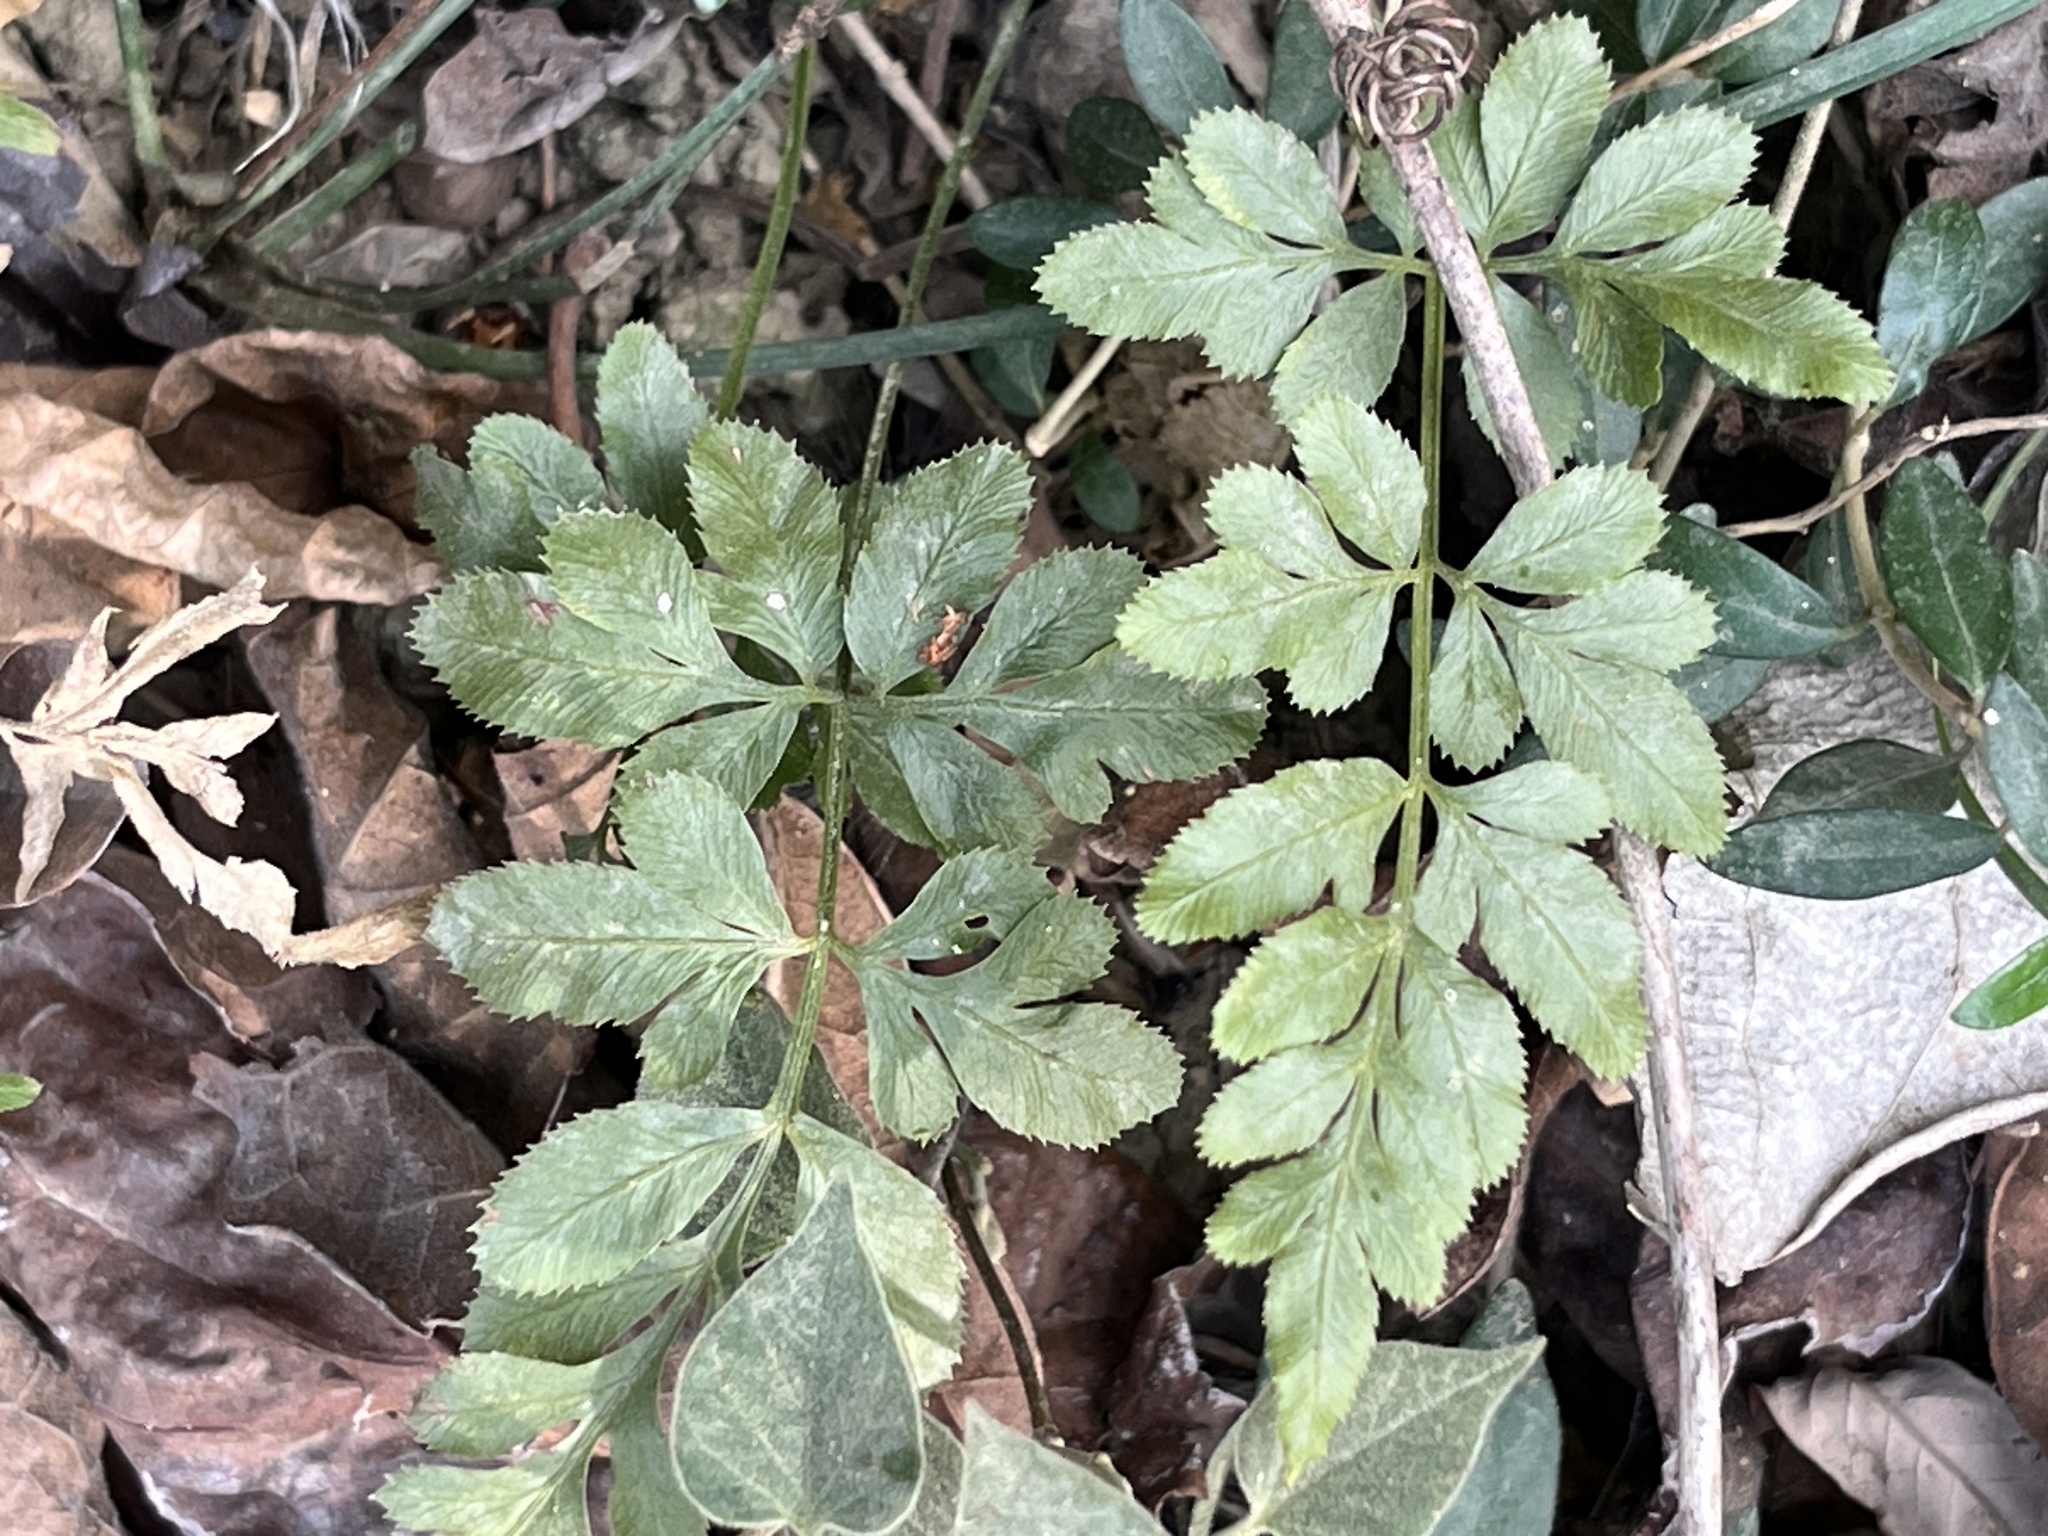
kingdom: Plantae
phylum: Tracheophyta
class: Polypodiopsida
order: Polypodiales
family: Pteridaceae
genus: Pteris
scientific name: Pteris ensiformis
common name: Sword brake
